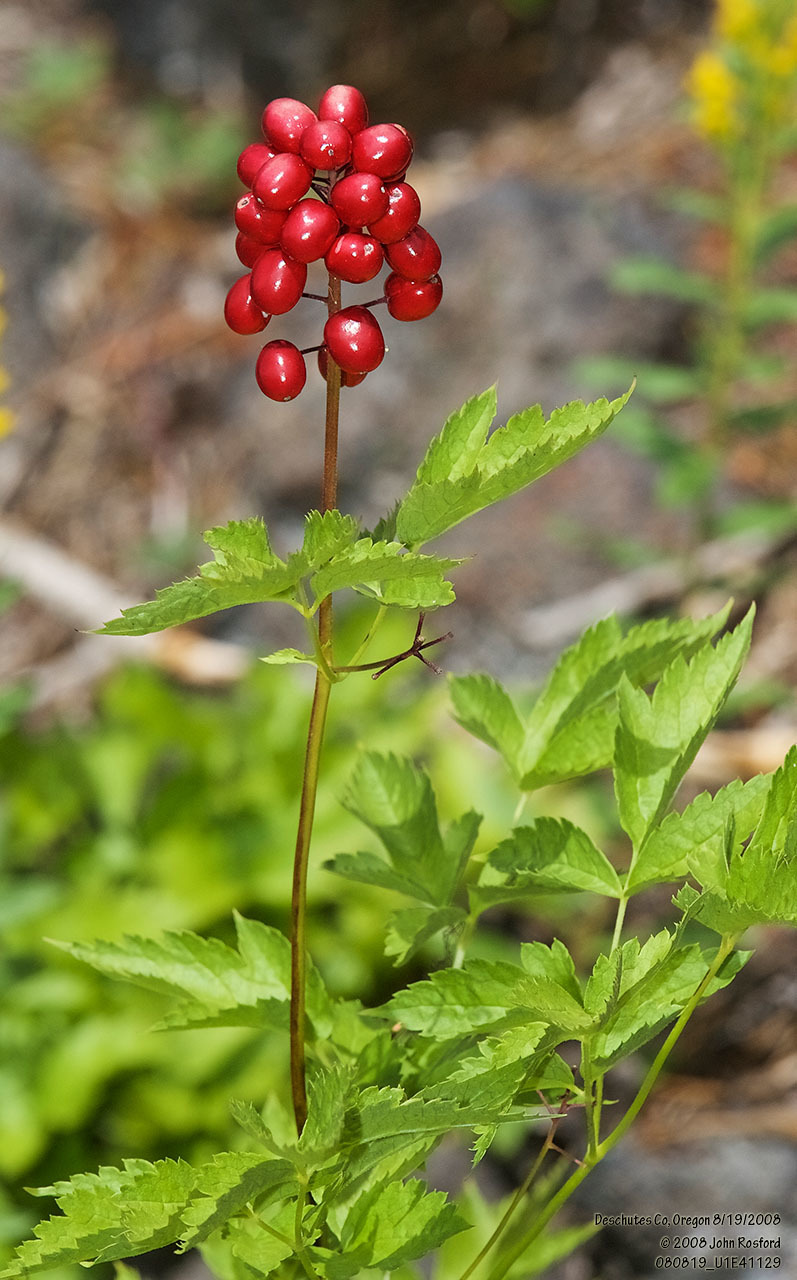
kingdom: Plantae
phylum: Tracheophyta
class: Magnoliopsida
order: Ranunculales
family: Ranunculaceae
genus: Actaea
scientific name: Actaea rubra
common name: Red baneberry
